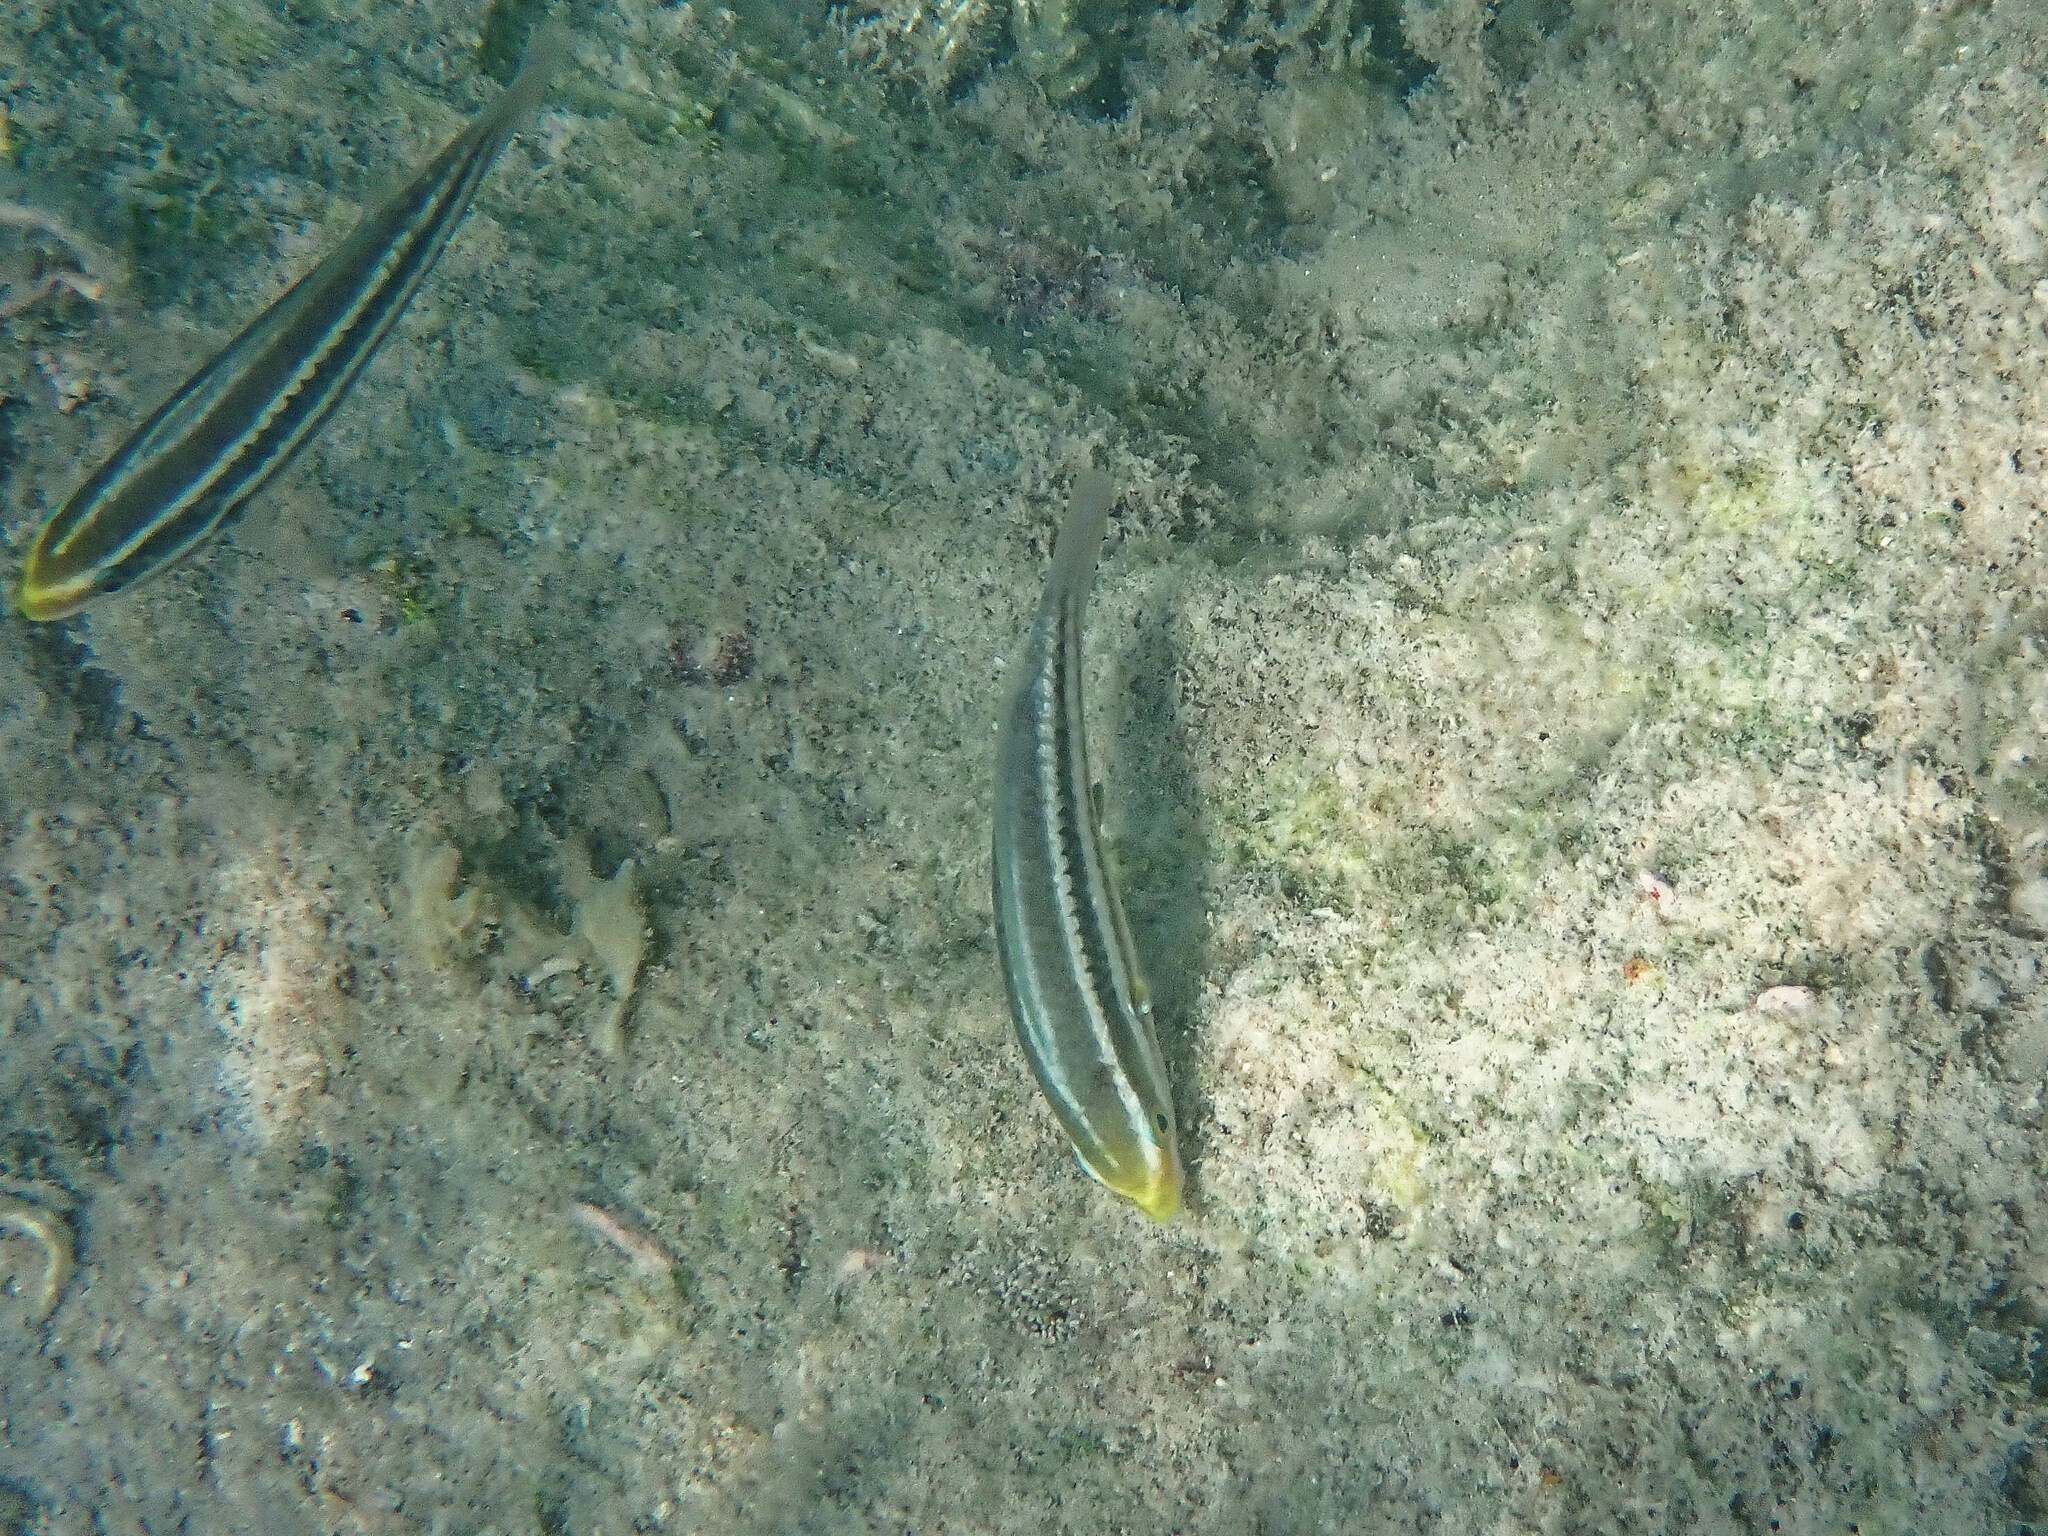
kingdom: Animalia
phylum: Chordata
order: Perciformes
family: Scaridae
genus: Scarus
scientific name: Scarus iseri
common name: Striped parrotfish
